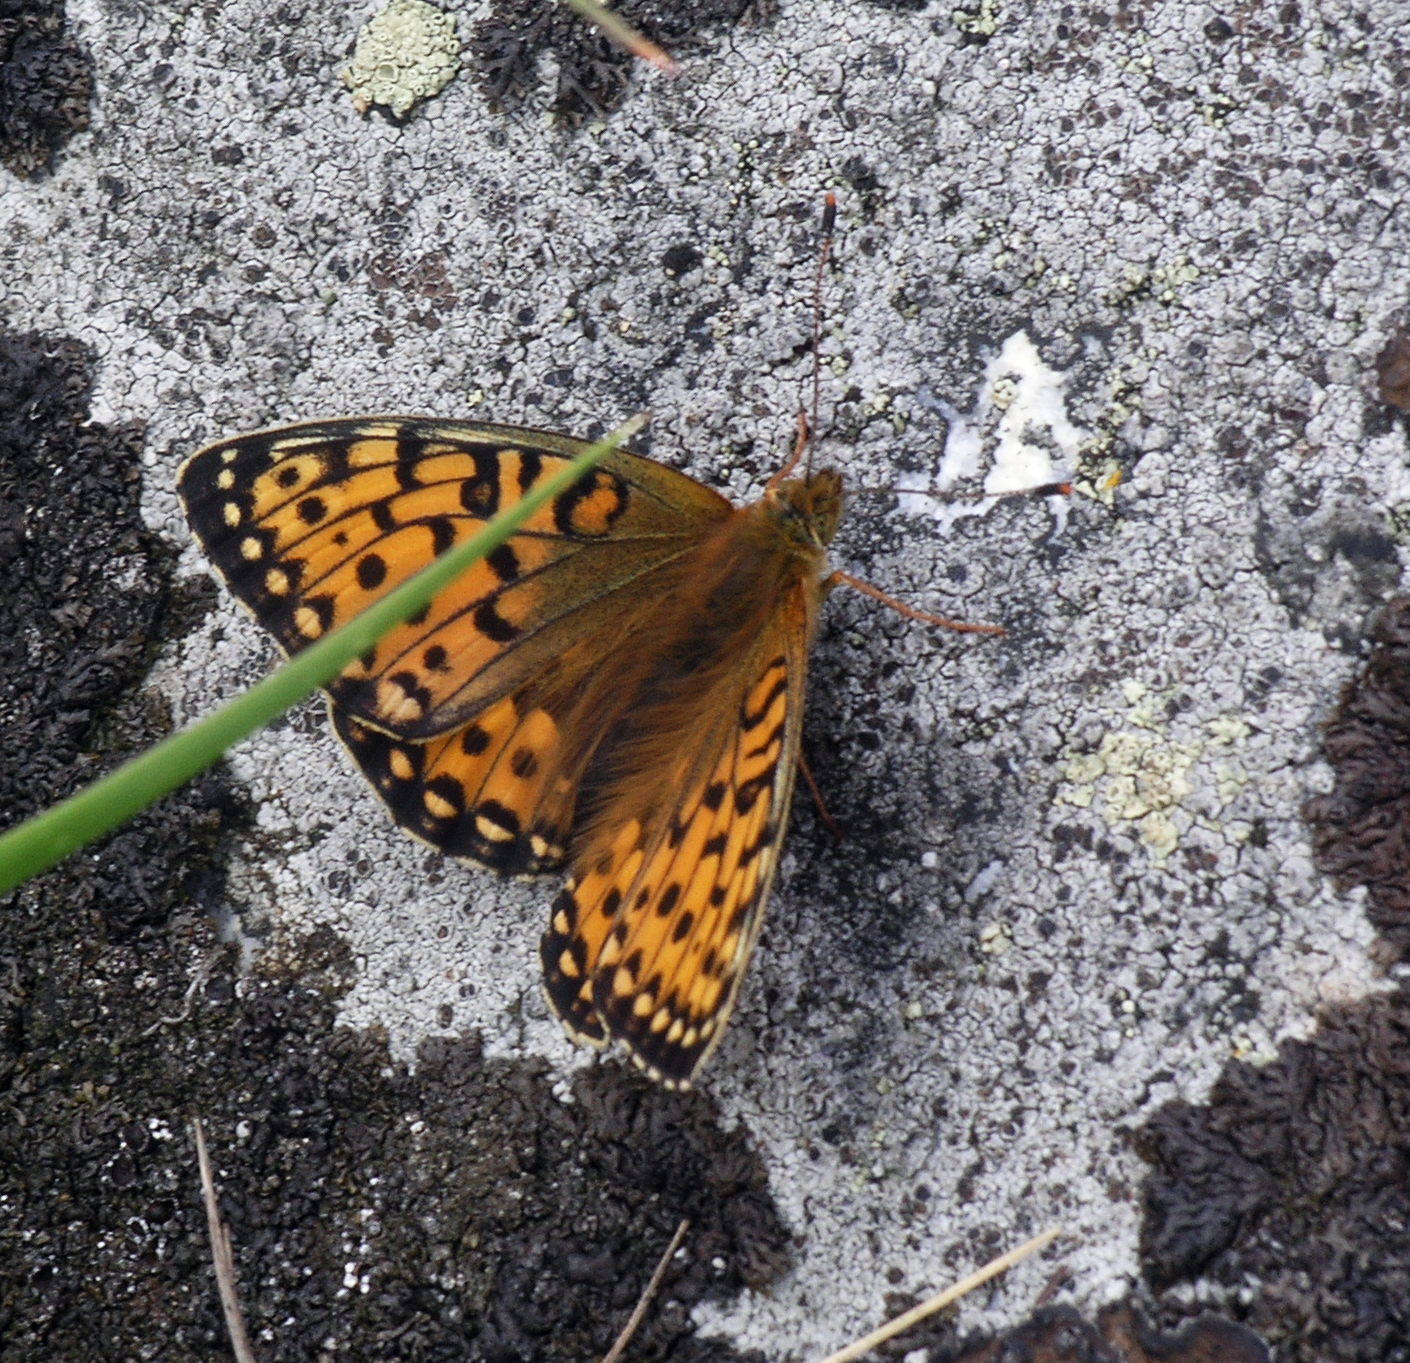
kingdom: Animalia
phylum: Arthropoda
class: Insecta
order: Lepidoptera
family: Nymphalidae
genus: Speyeria
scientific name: Speyeria aglaja
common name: Dark green fritillary
